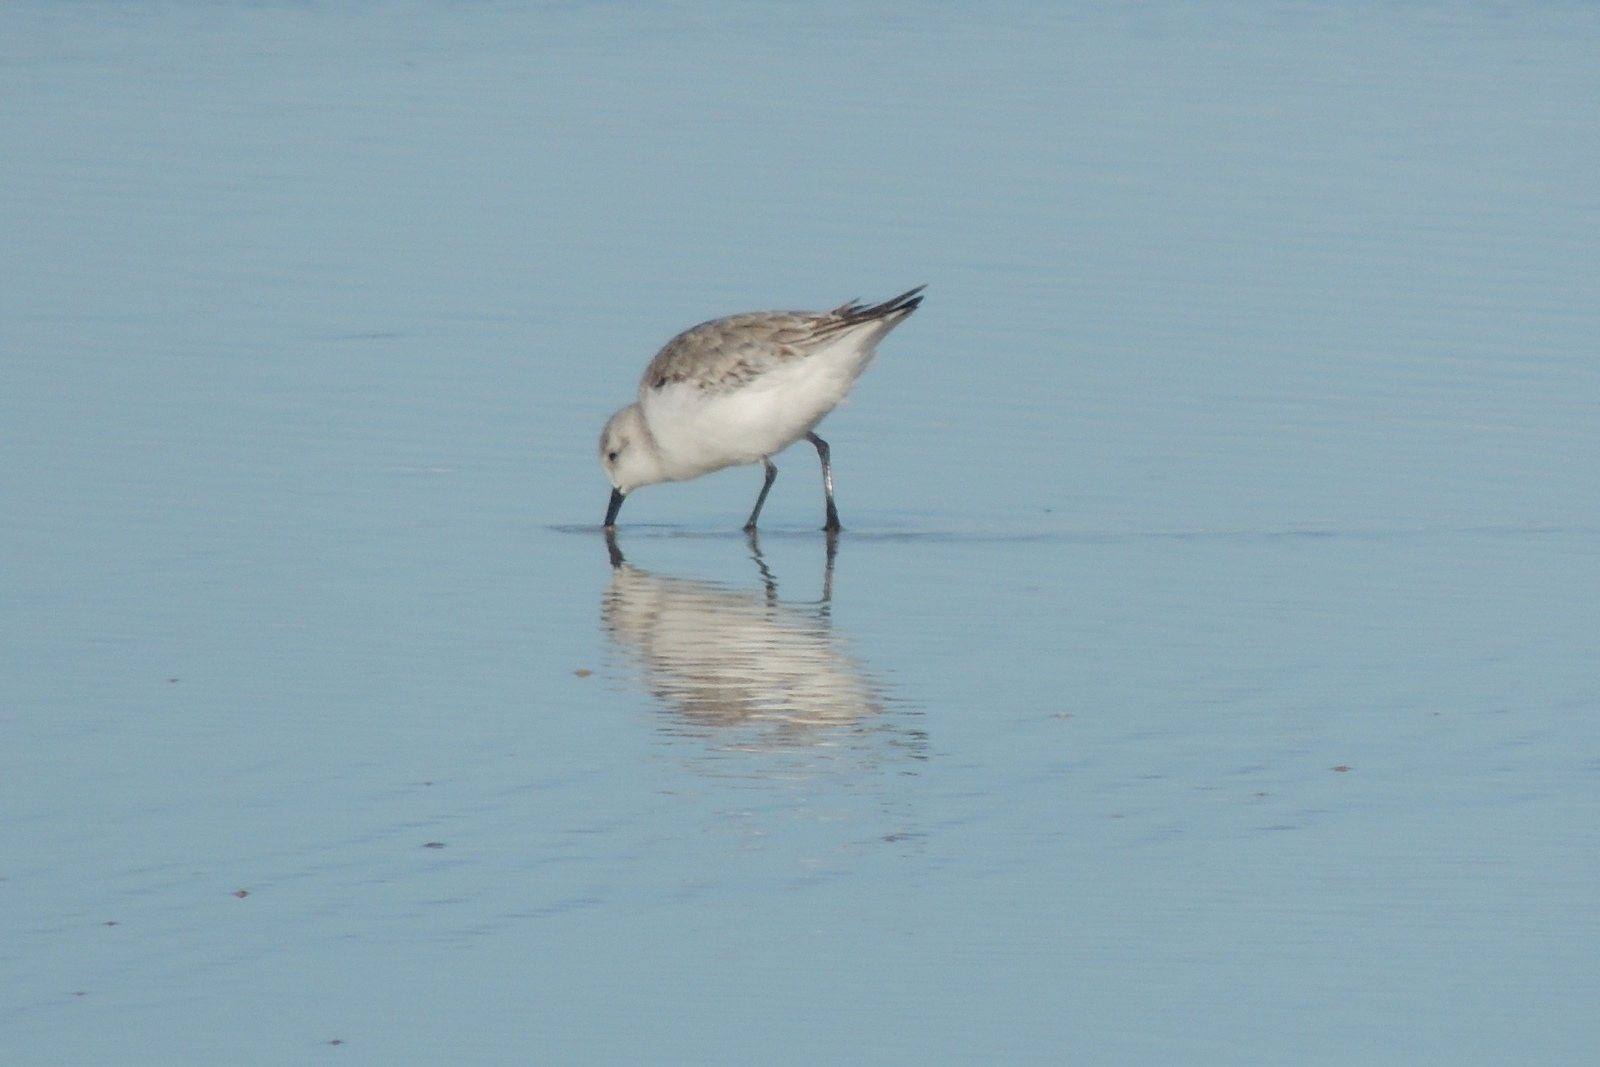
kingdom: Animalia
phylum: Chordata
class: Aves
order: Charadriiformes
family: Scolopacidae
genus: Calidris
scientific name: Calidris alba
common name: Sanderling
